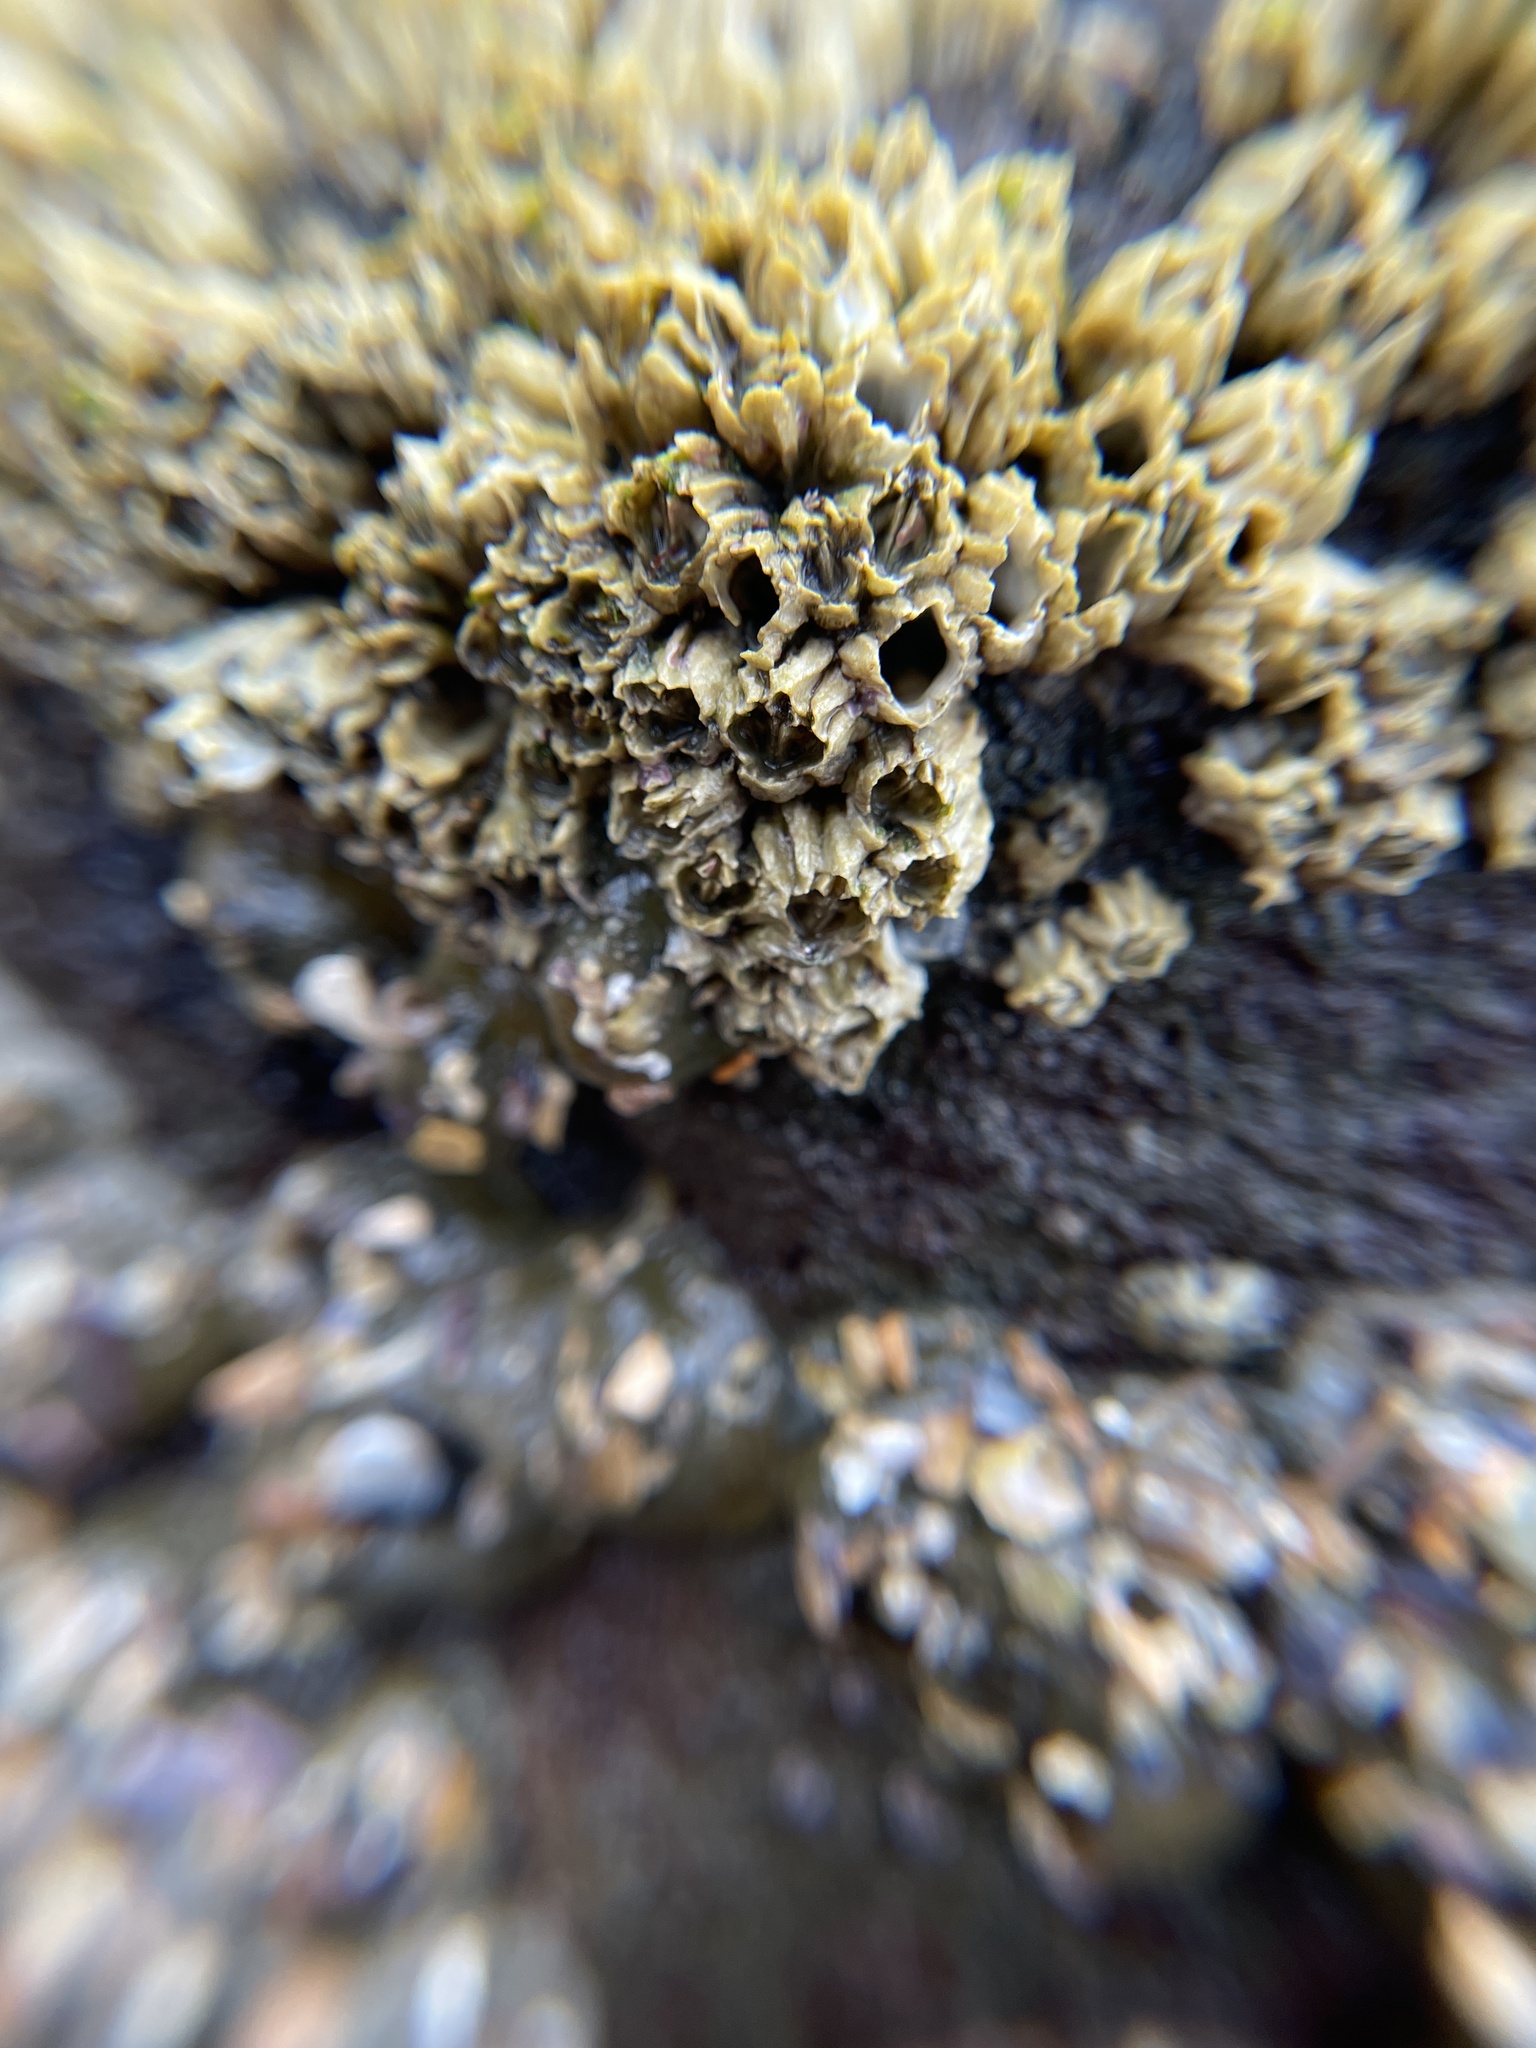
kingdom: Animalia
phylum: Arthropoda
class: Maxillopoda
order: Sessilia
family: Balanidae
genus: Balanus
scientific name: Balanus glandula
